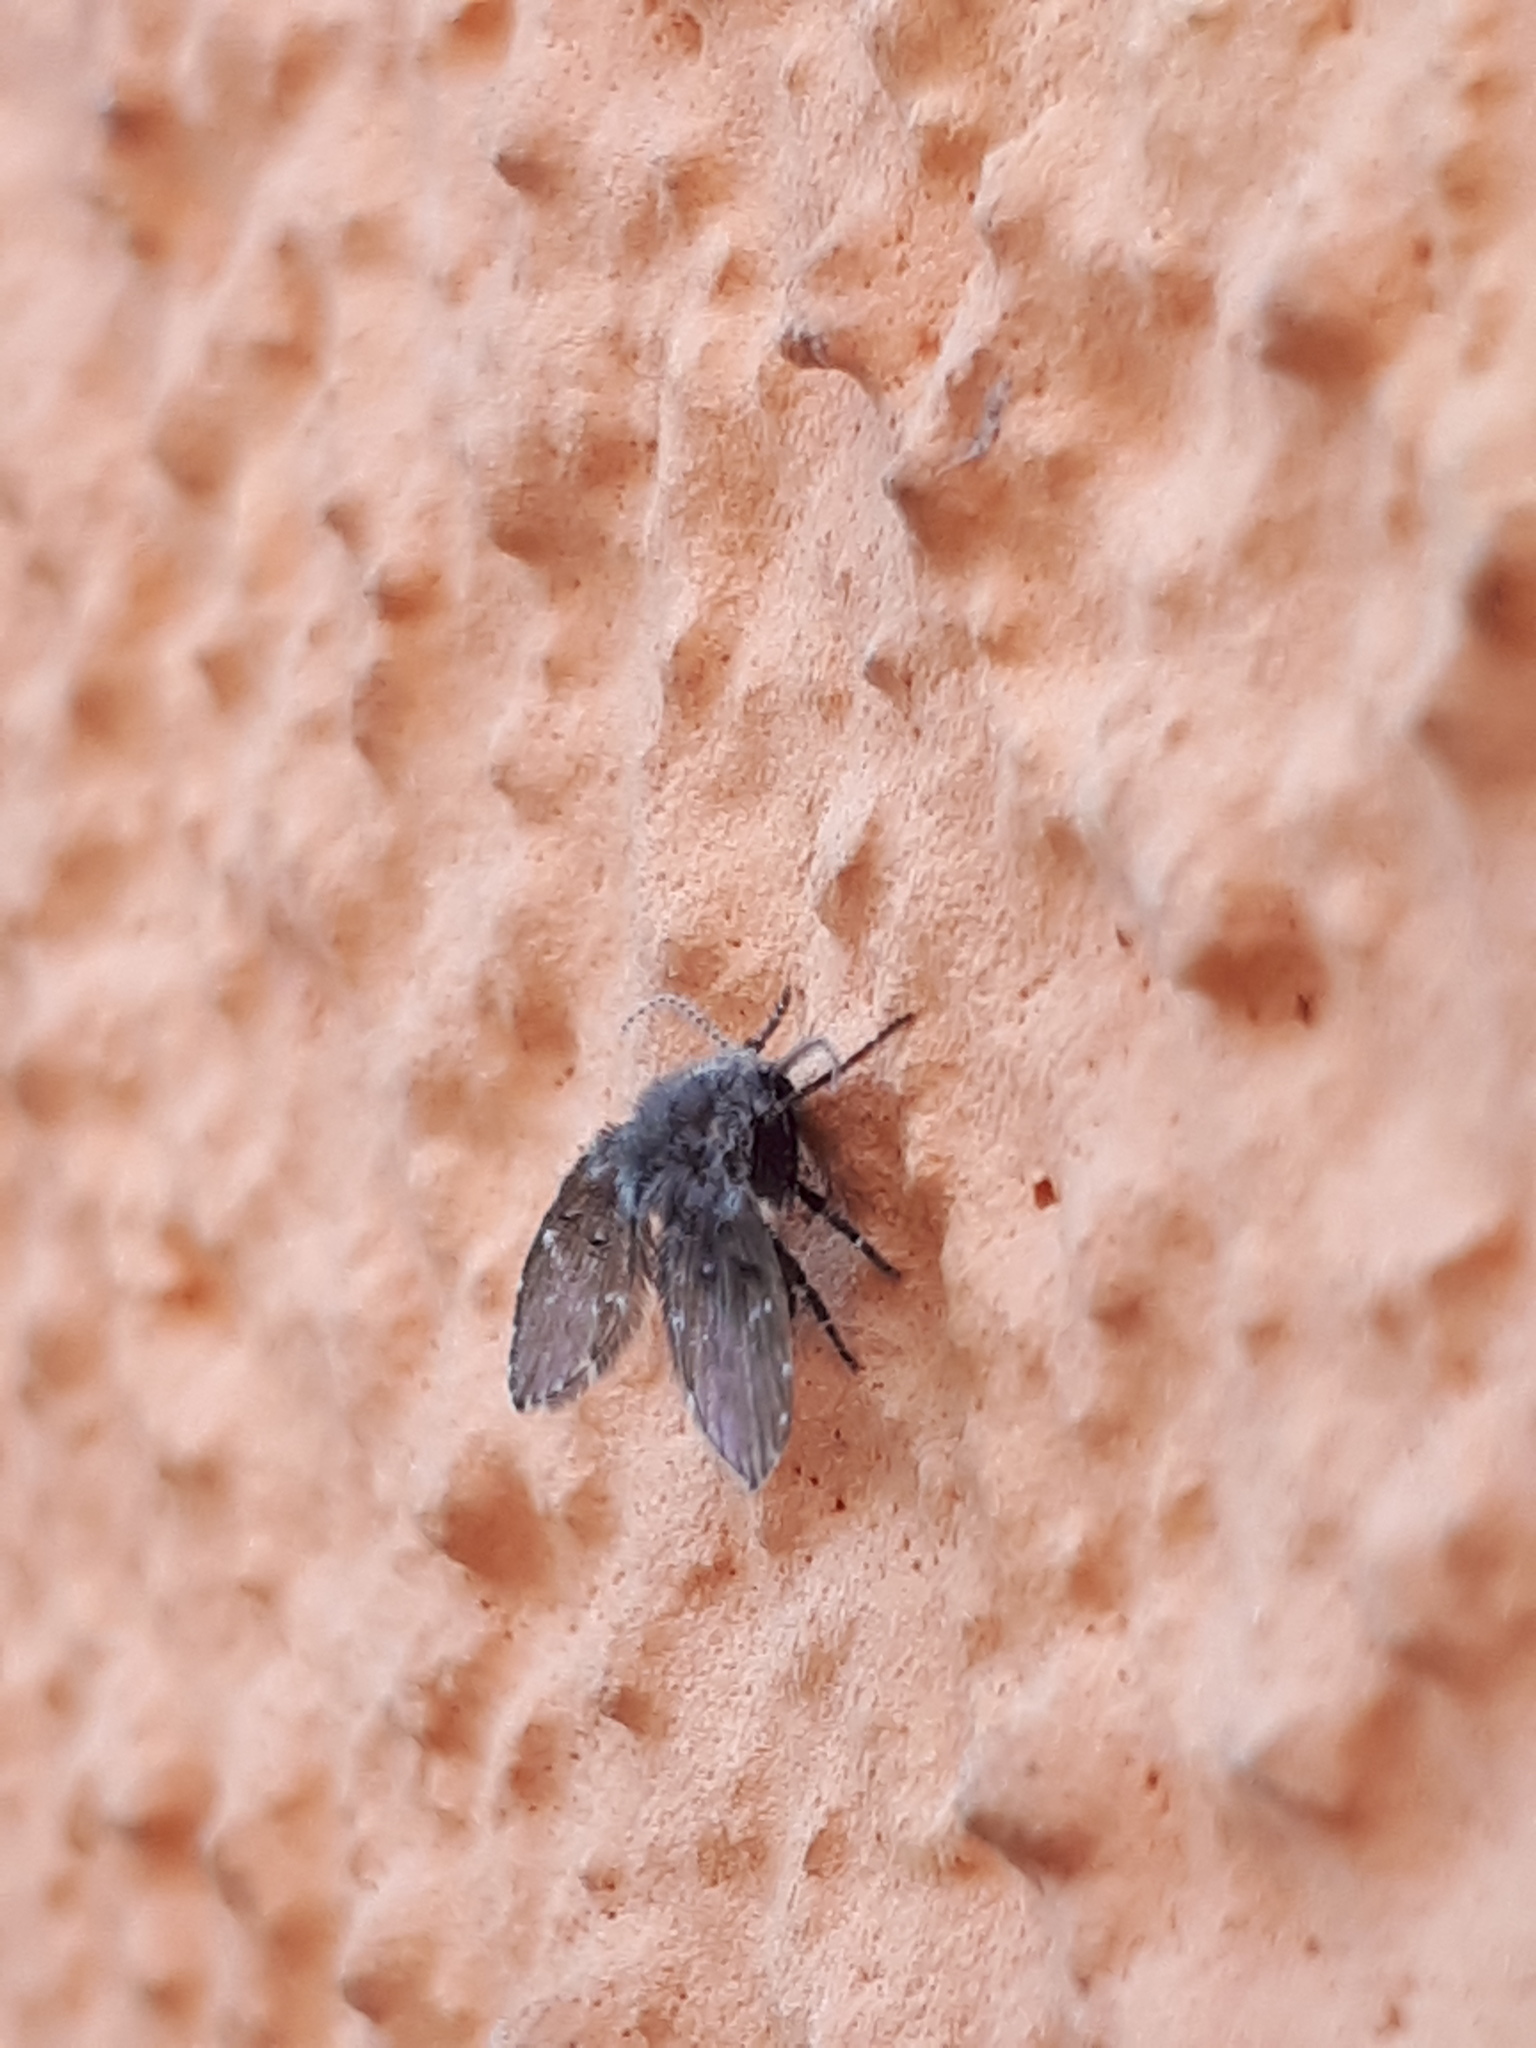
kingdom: Animalia
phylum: Arthropoda
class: Insecta
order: Diptera
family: Psychodidae
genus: Clogmia
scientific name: Clogmia albipunctatus
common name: White-spotted moth fly
